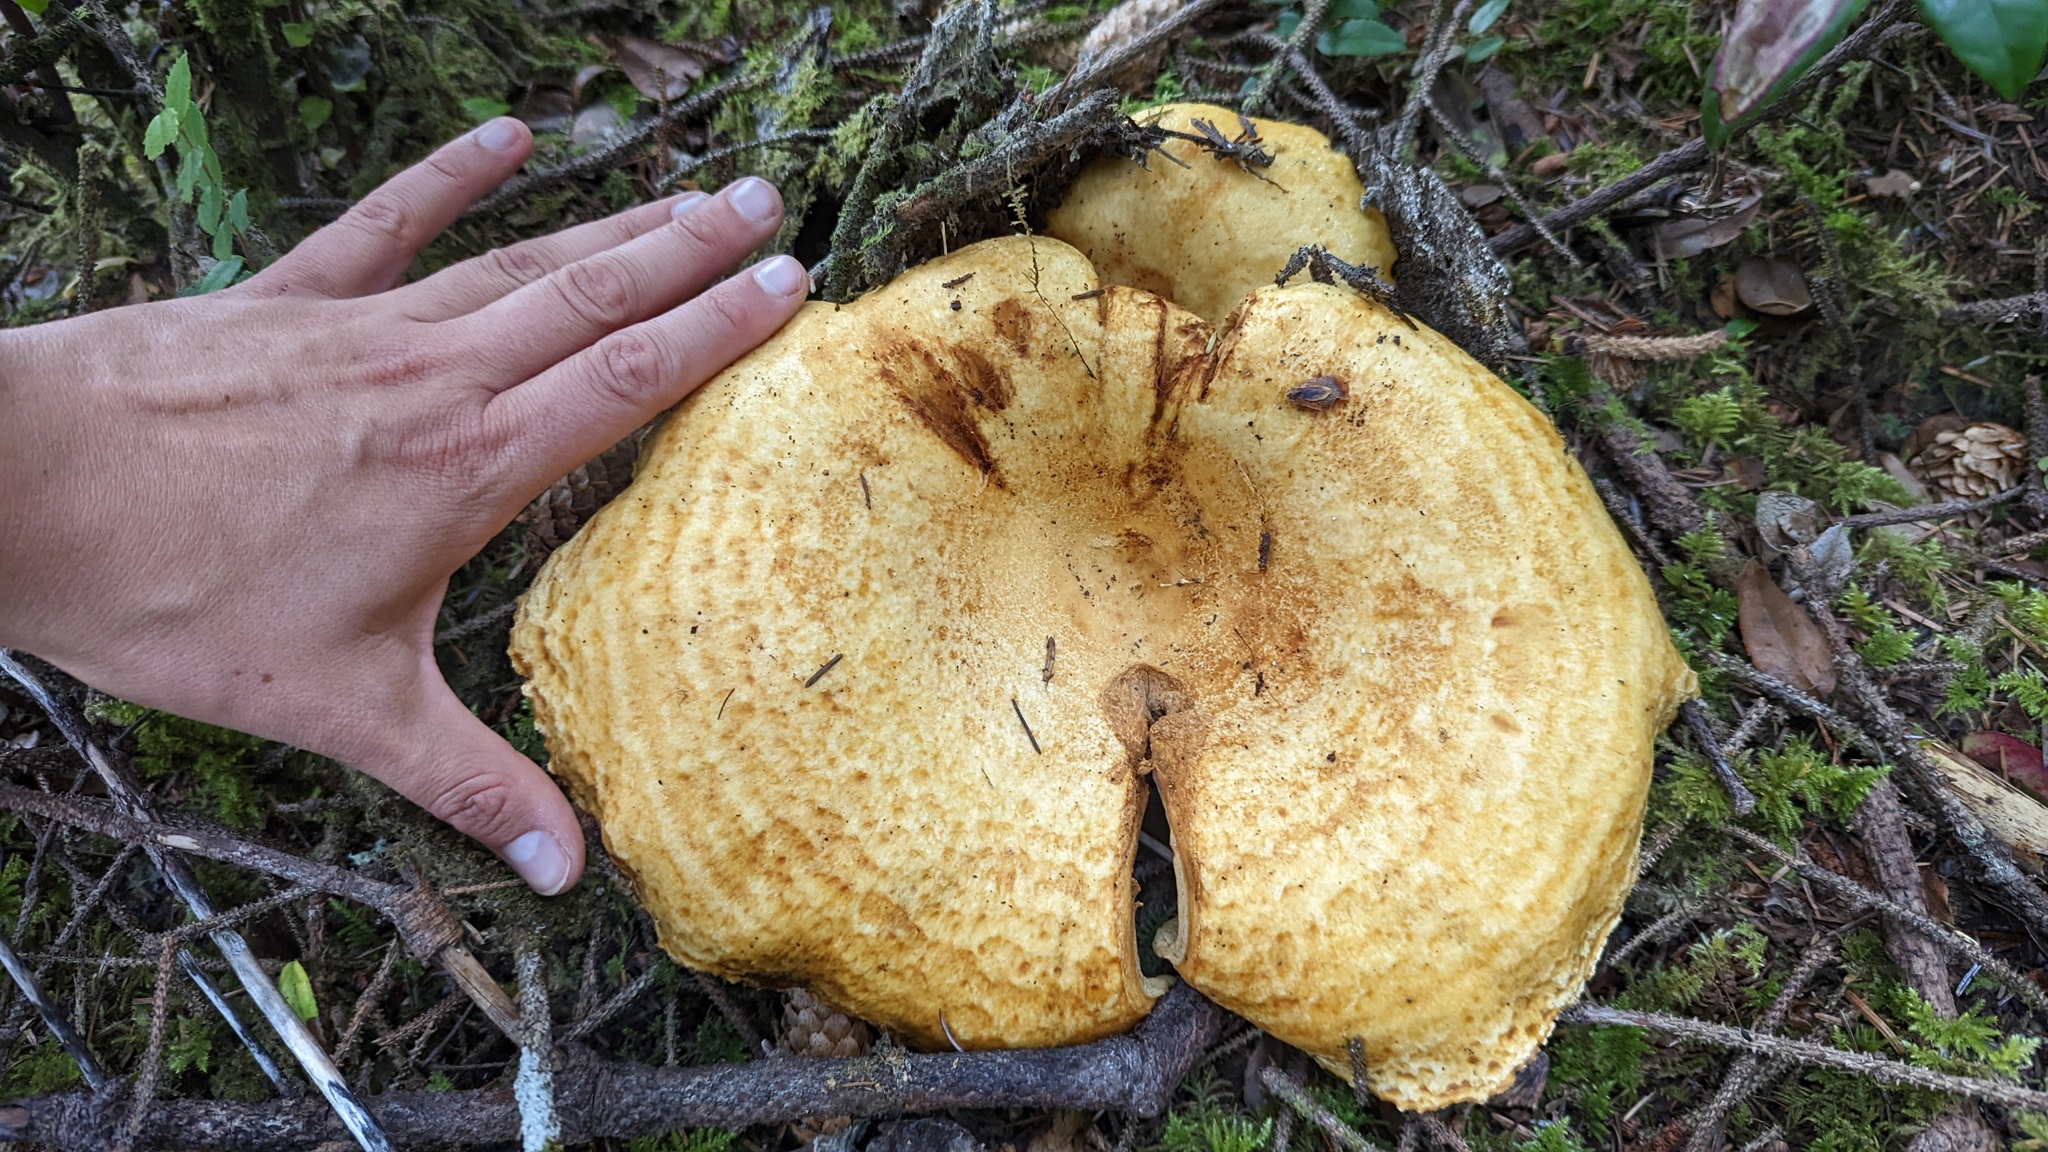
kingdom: Fungi
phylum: Basidiomycota
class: Agaricomycetes
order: Russulales
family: Russulaceae
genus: Lactarius
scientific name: Lactarius scrobiculatus
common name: Spotted milkcap
